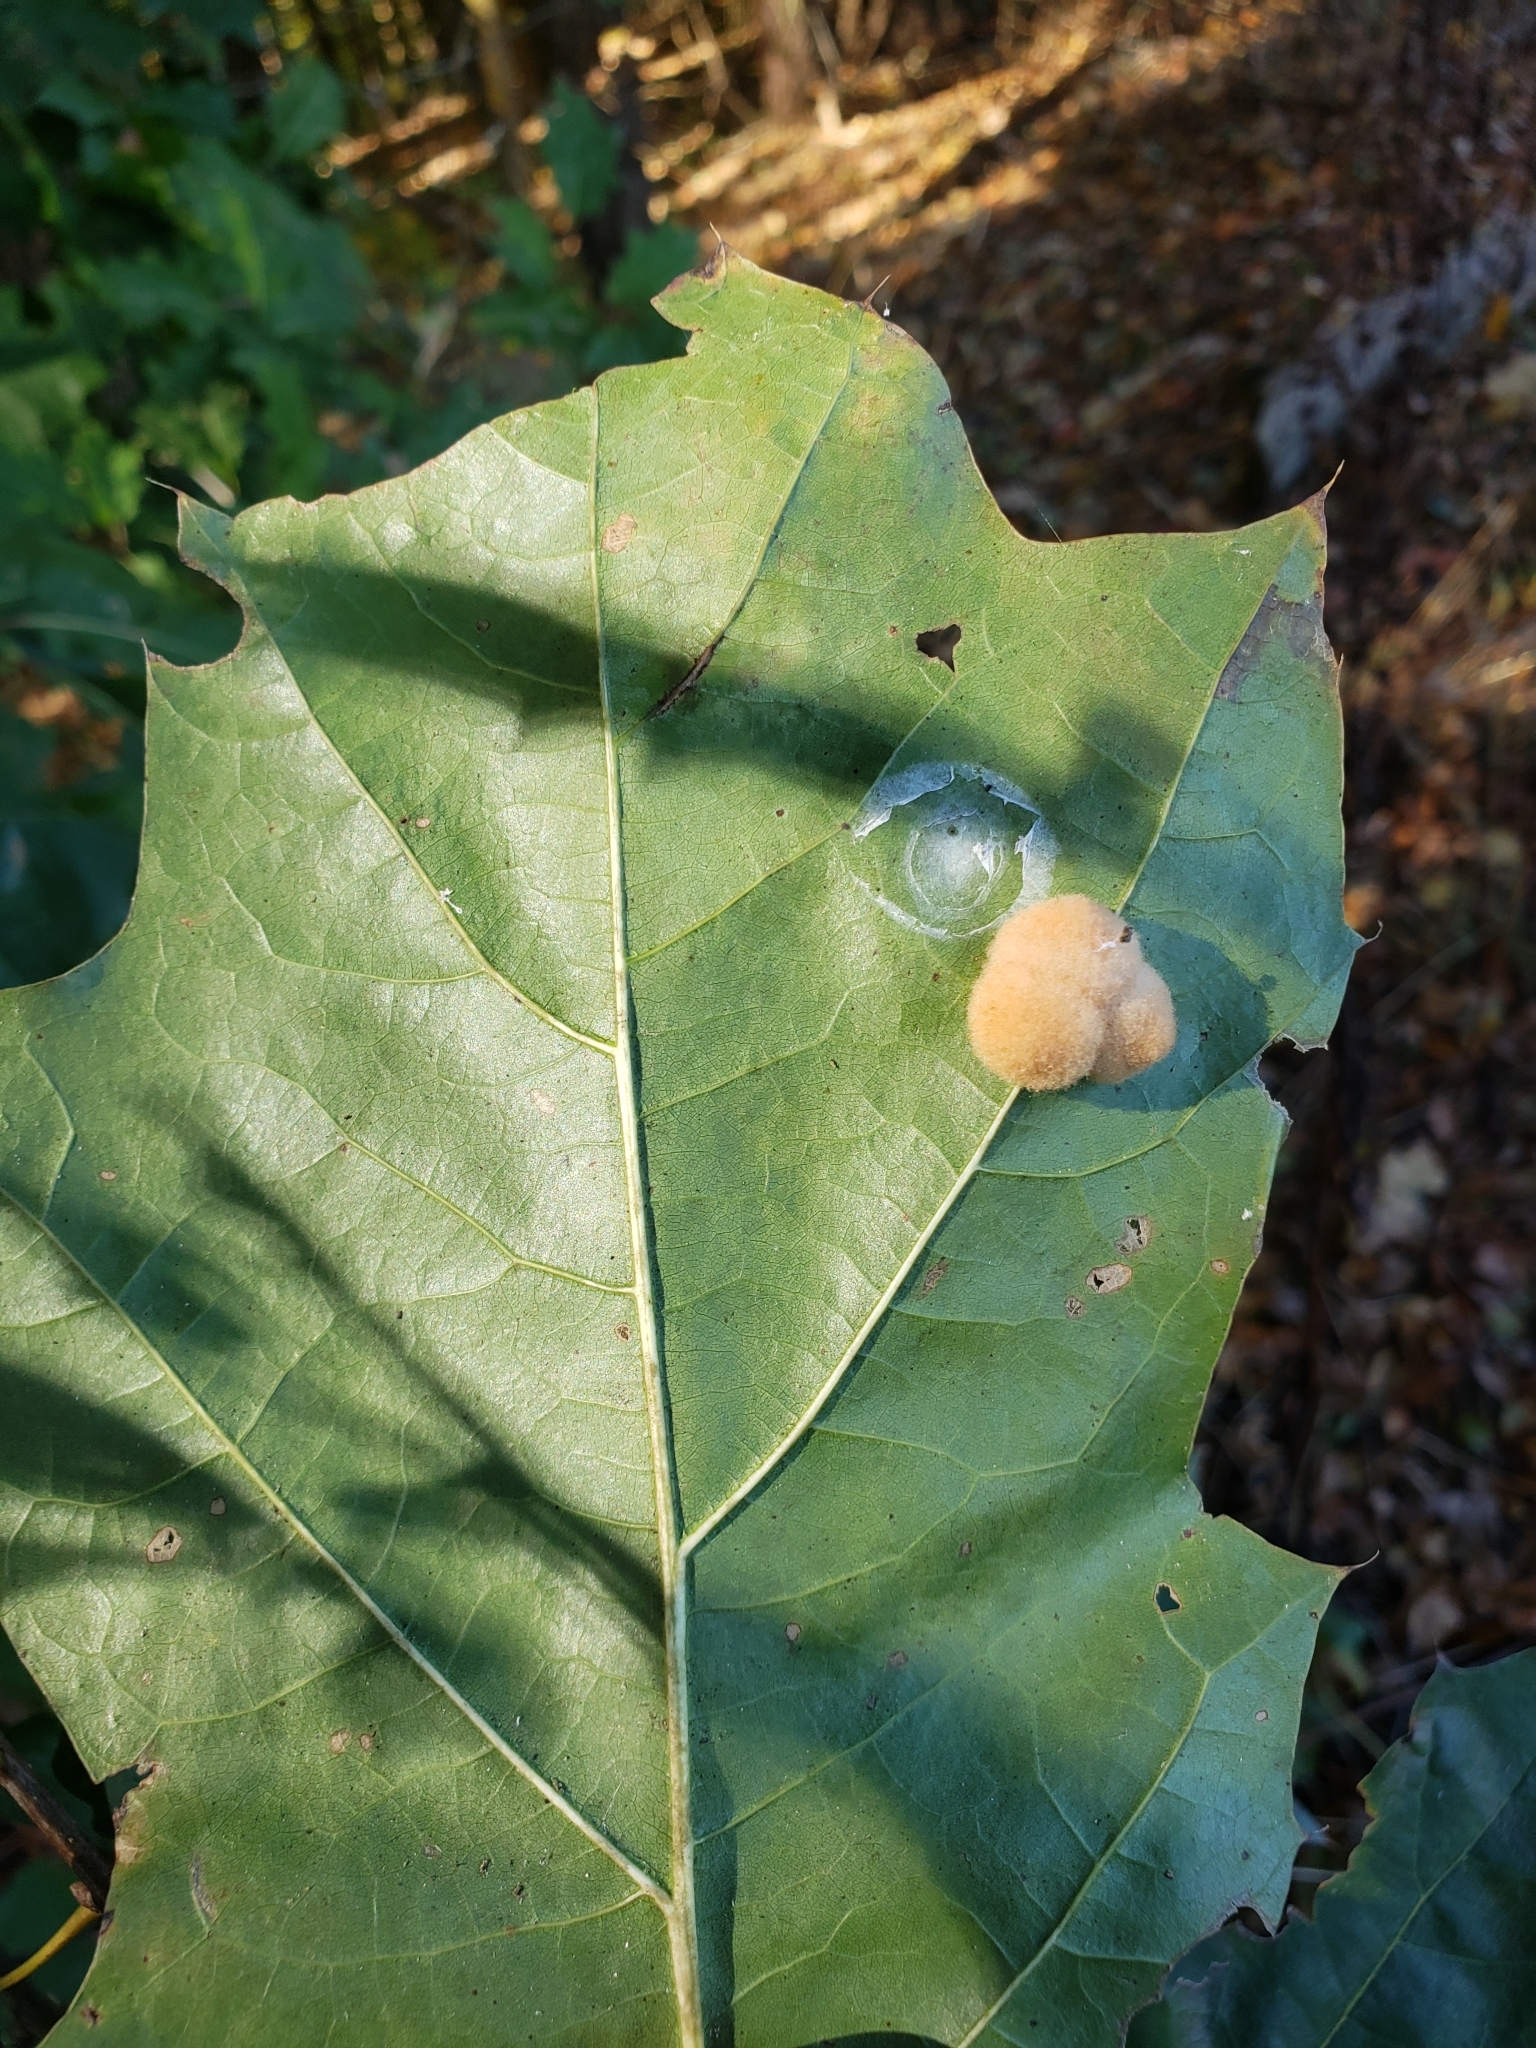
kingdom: Animalia
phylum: Arthropoda
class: Insecta
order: Hymenoptera
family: Cynipidae
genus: Callirhytis
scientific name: Callirhytis
